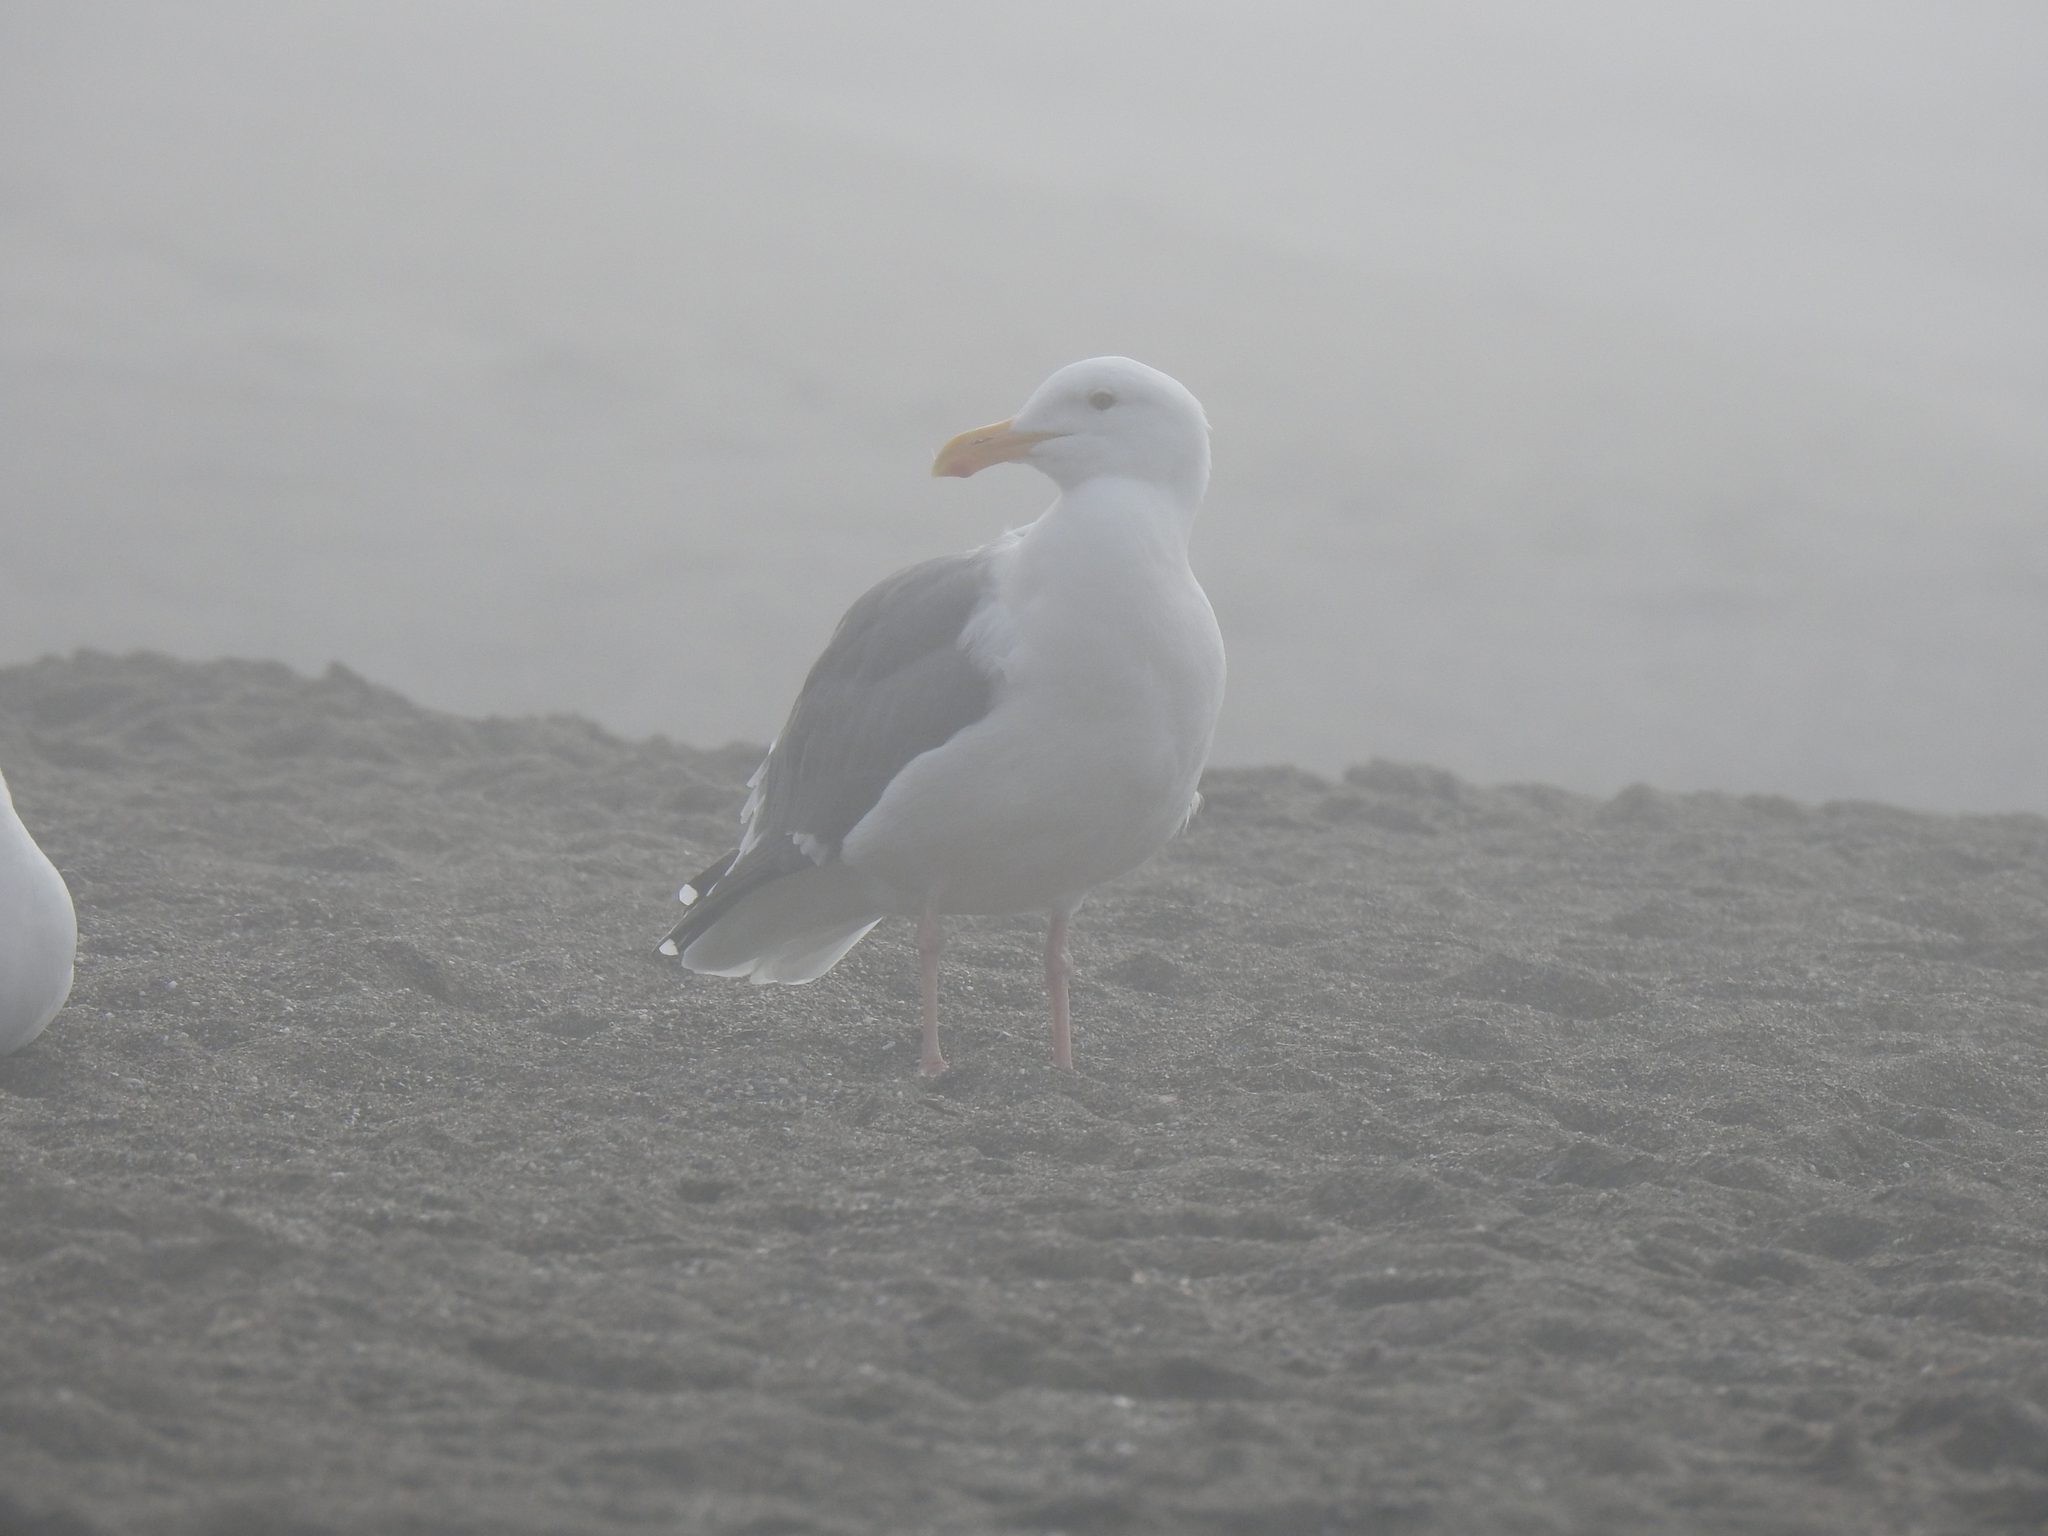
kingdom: Animalia
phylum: Chordata
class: Aves
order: Charadriiformes
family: Laridae
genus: Larus
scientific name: Larus occidentalis
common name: Western gull
